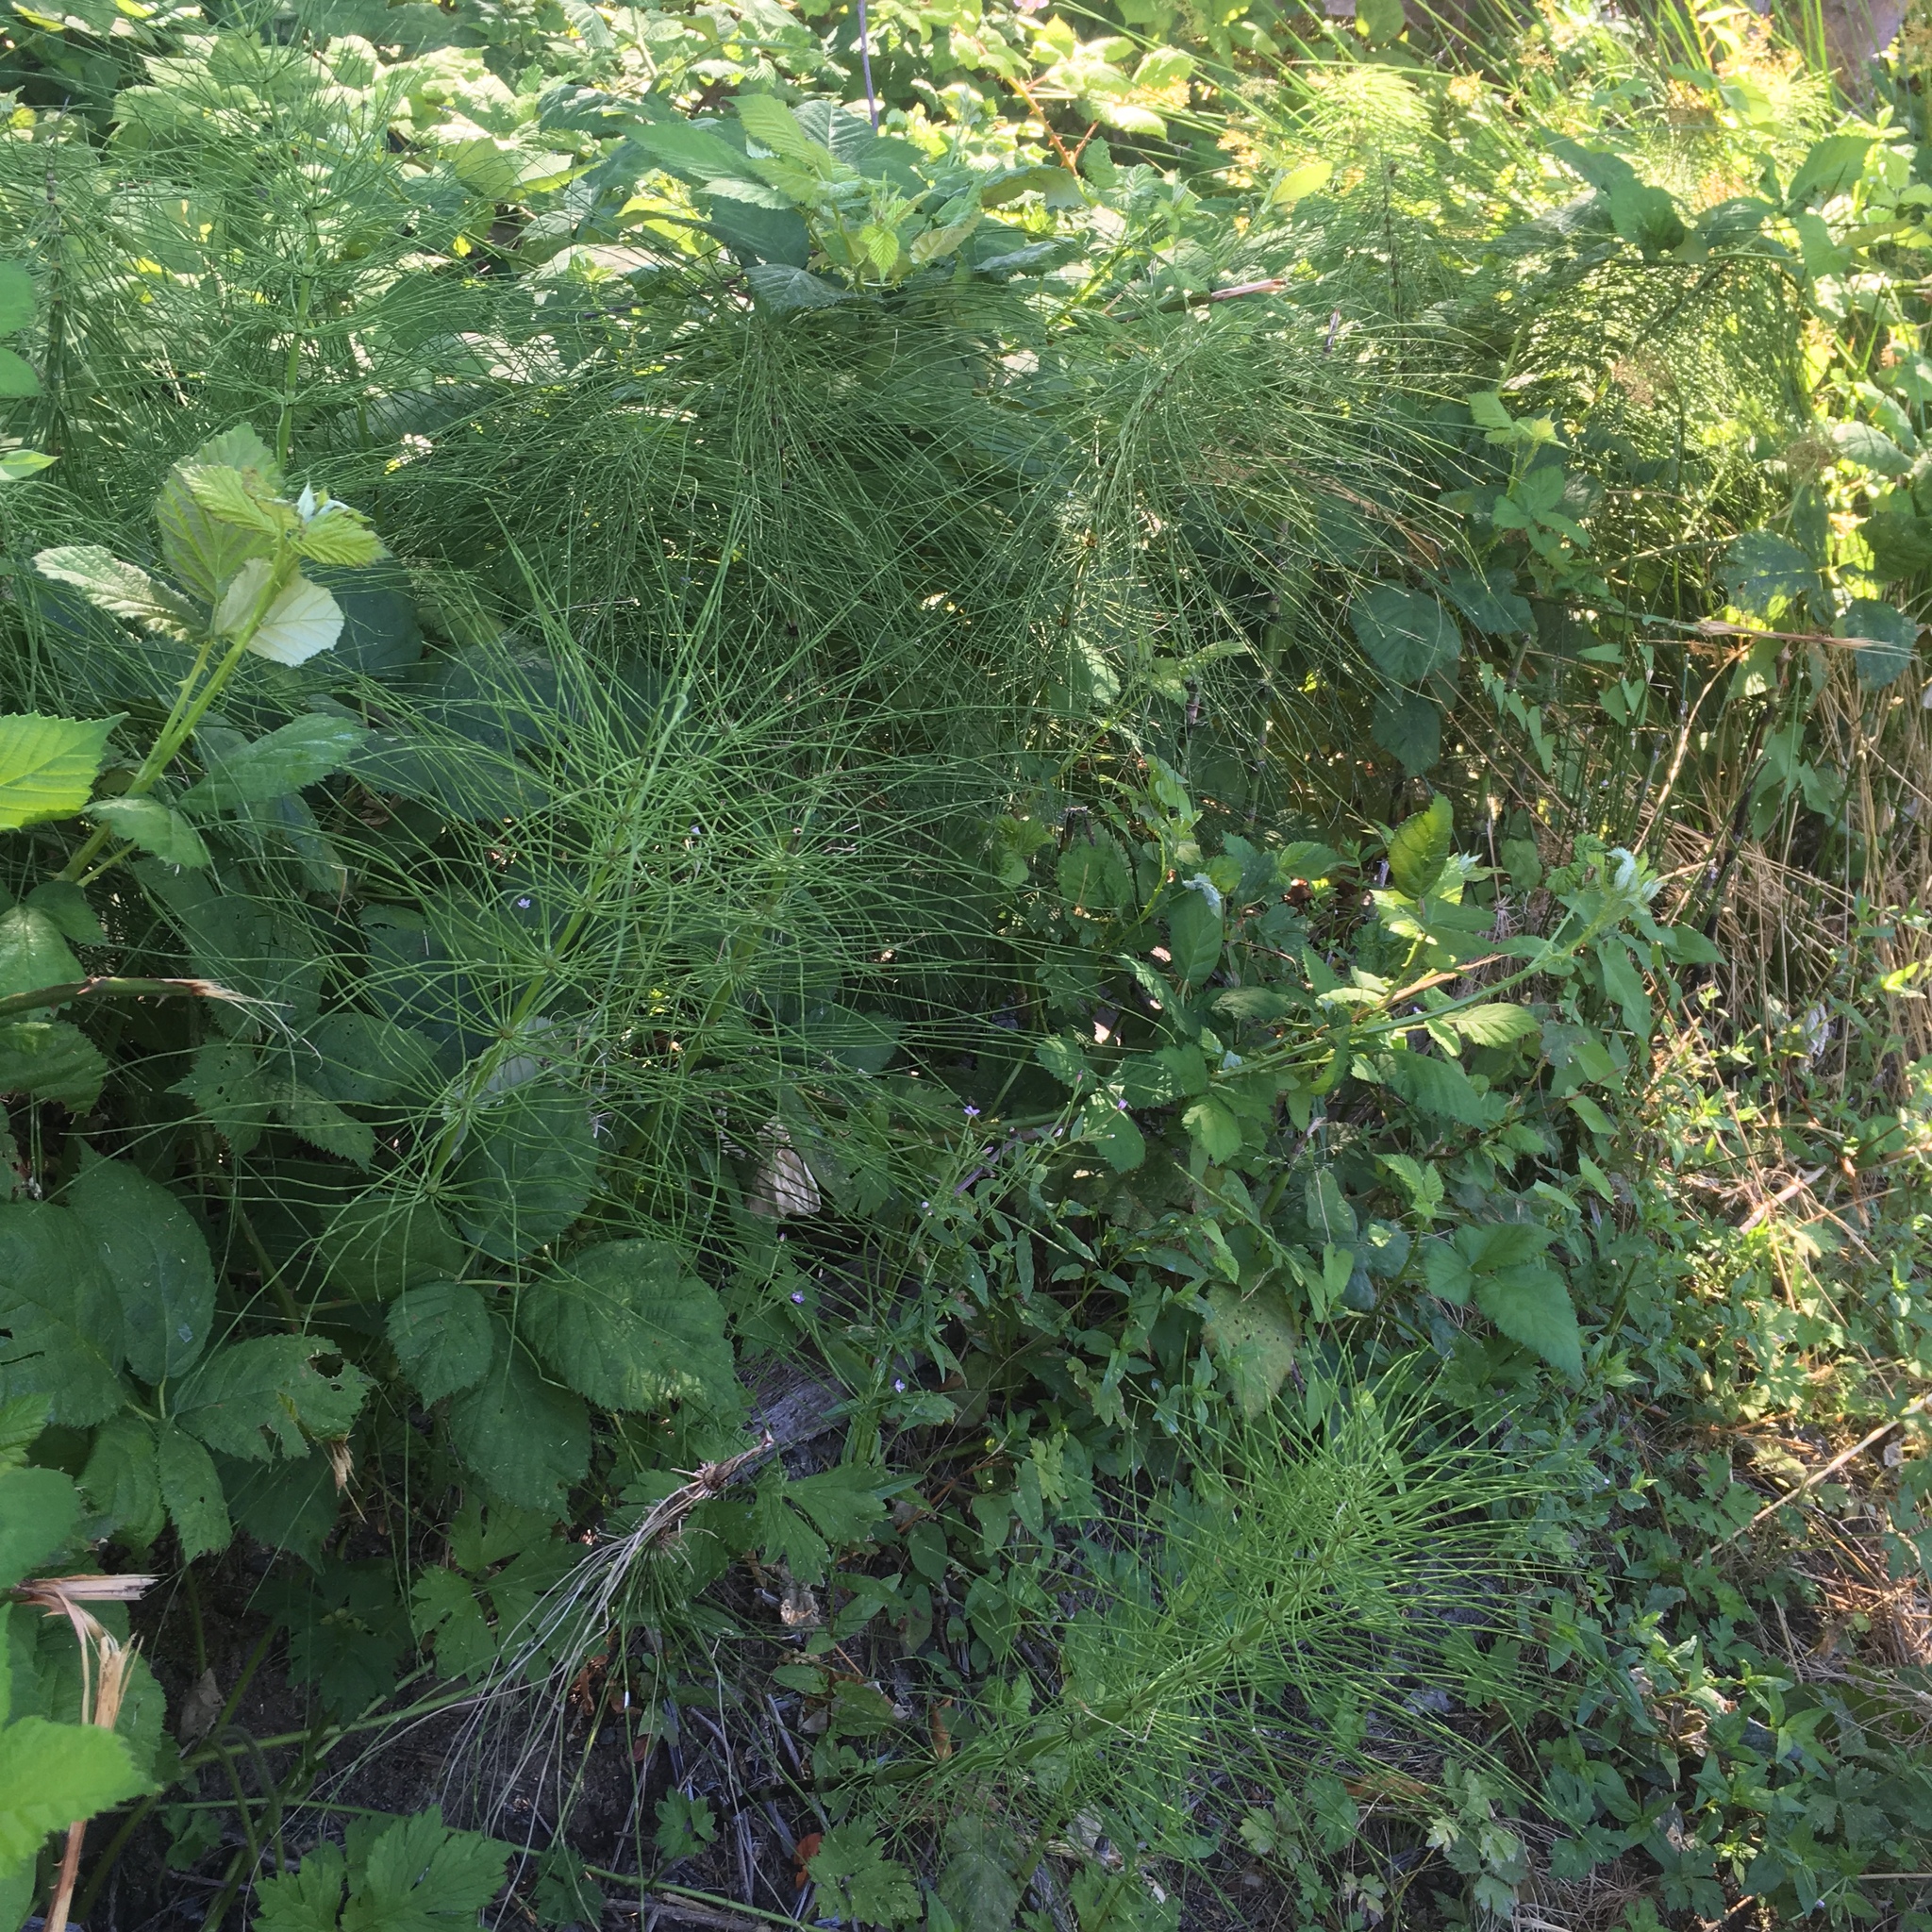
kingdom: Plantae
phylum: Tracheophyta
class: Polypodiopsida
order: Equisetales
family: Equisetaceae
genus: Equisetum
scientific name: Equisetum braunii
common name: Braun's horsetail
